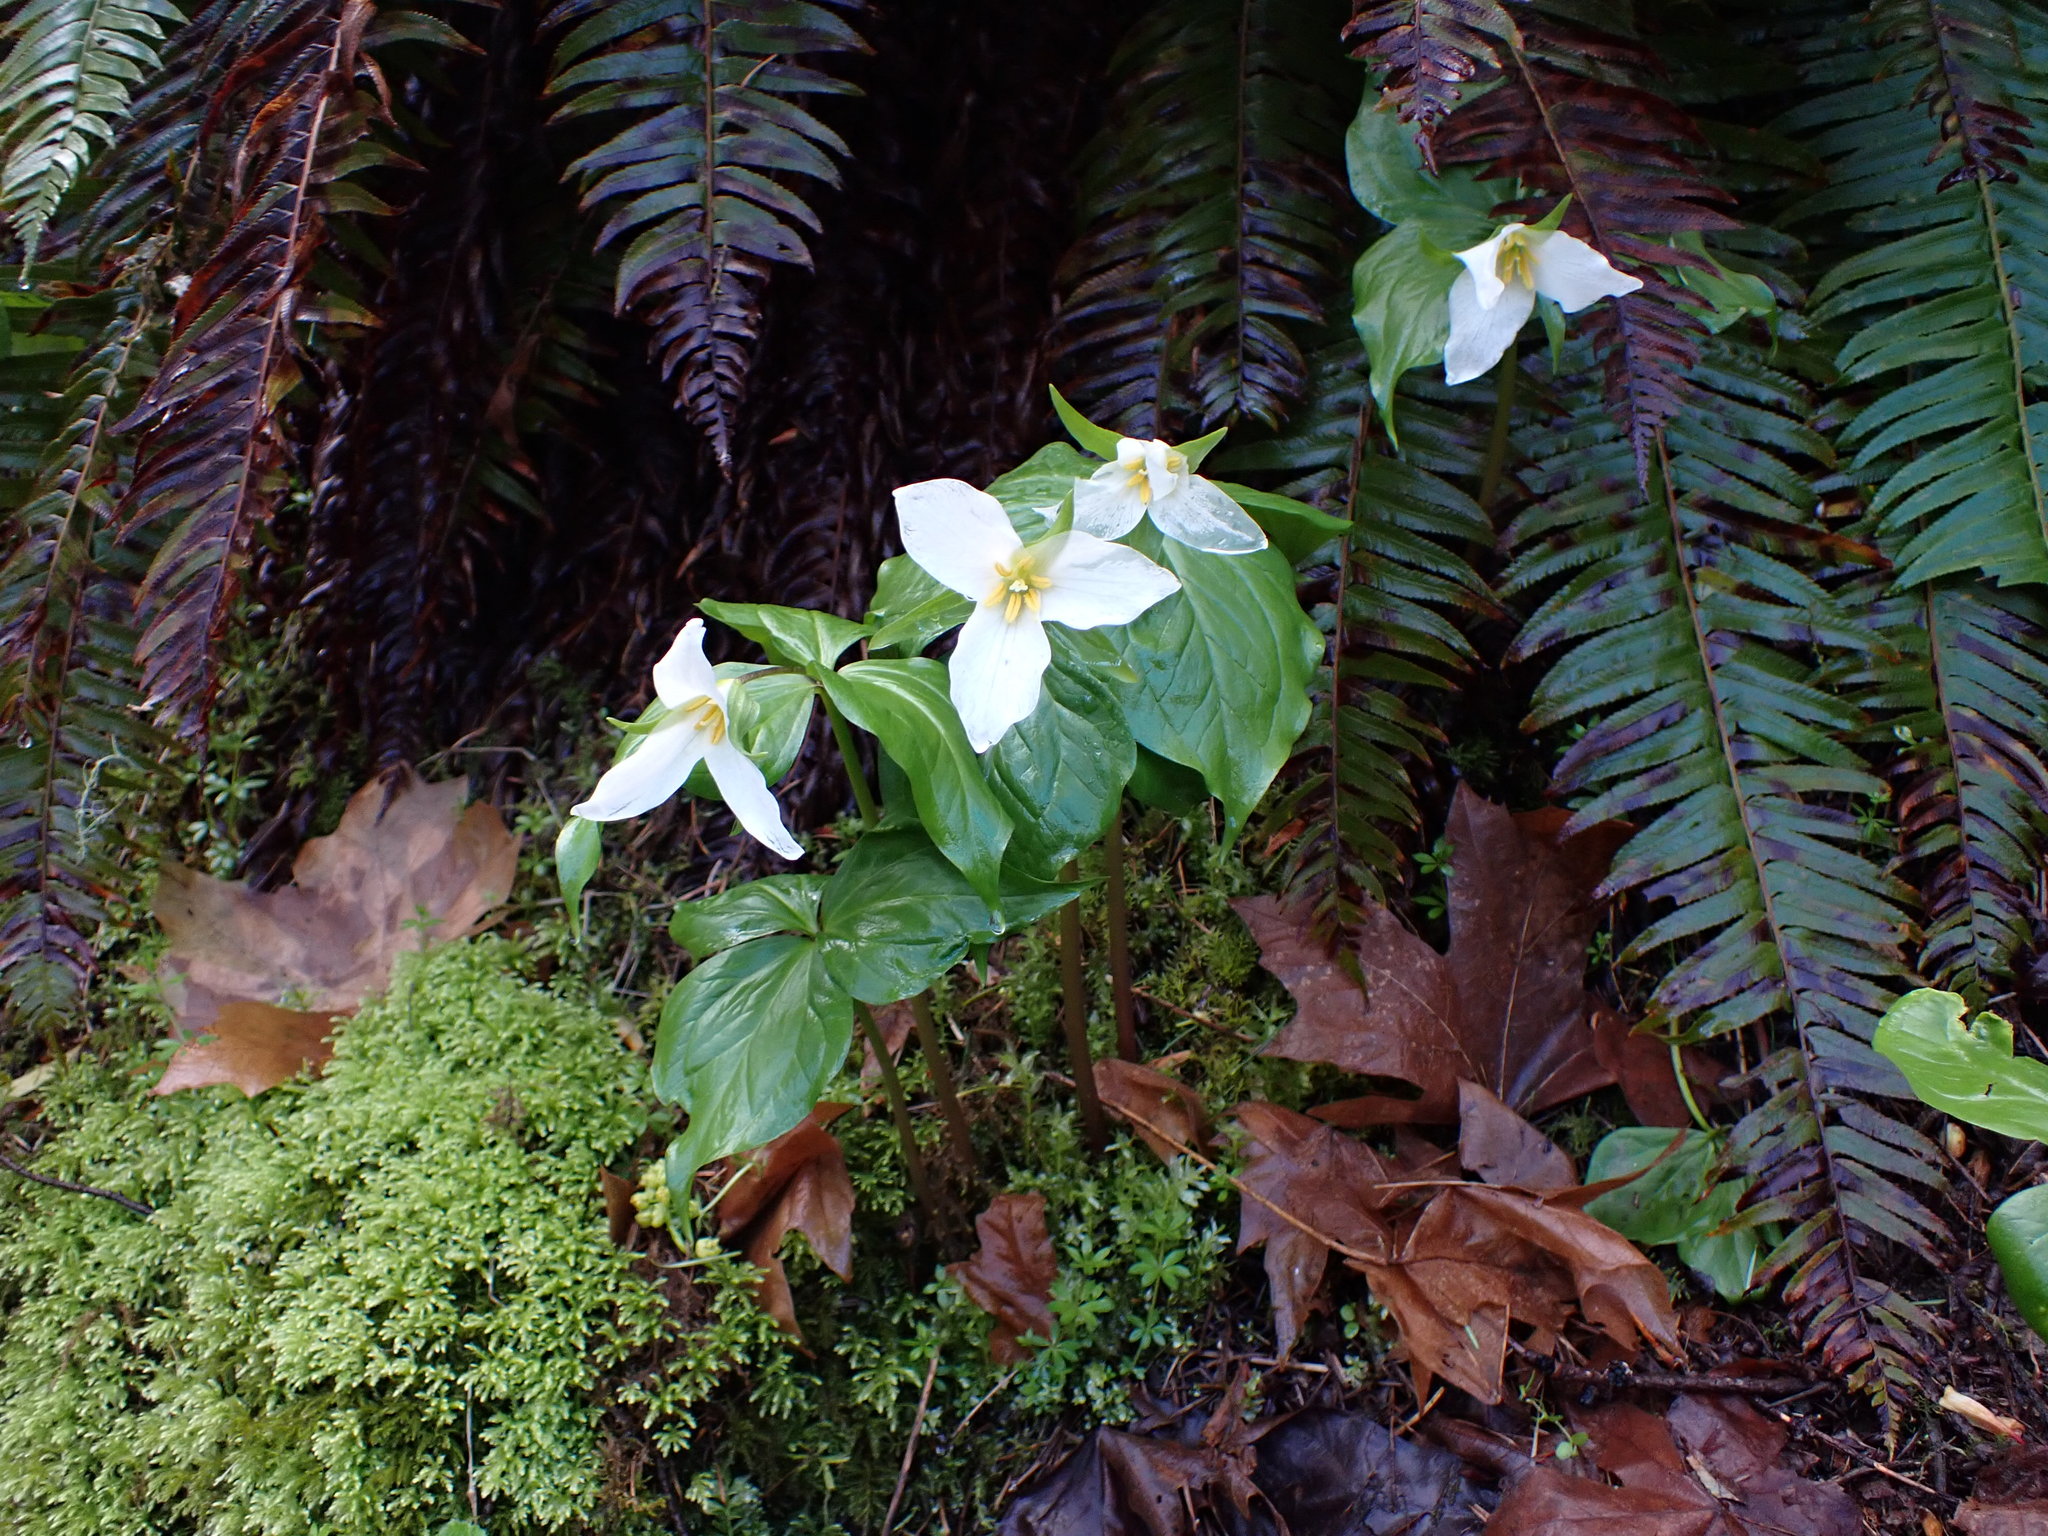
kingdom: Plantae
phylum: Tracheophyta
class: Liliopsida
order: Liliales
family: Melanthiaceae
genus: Trillium
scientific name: Trillium ovatum
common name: Pacific trillium
